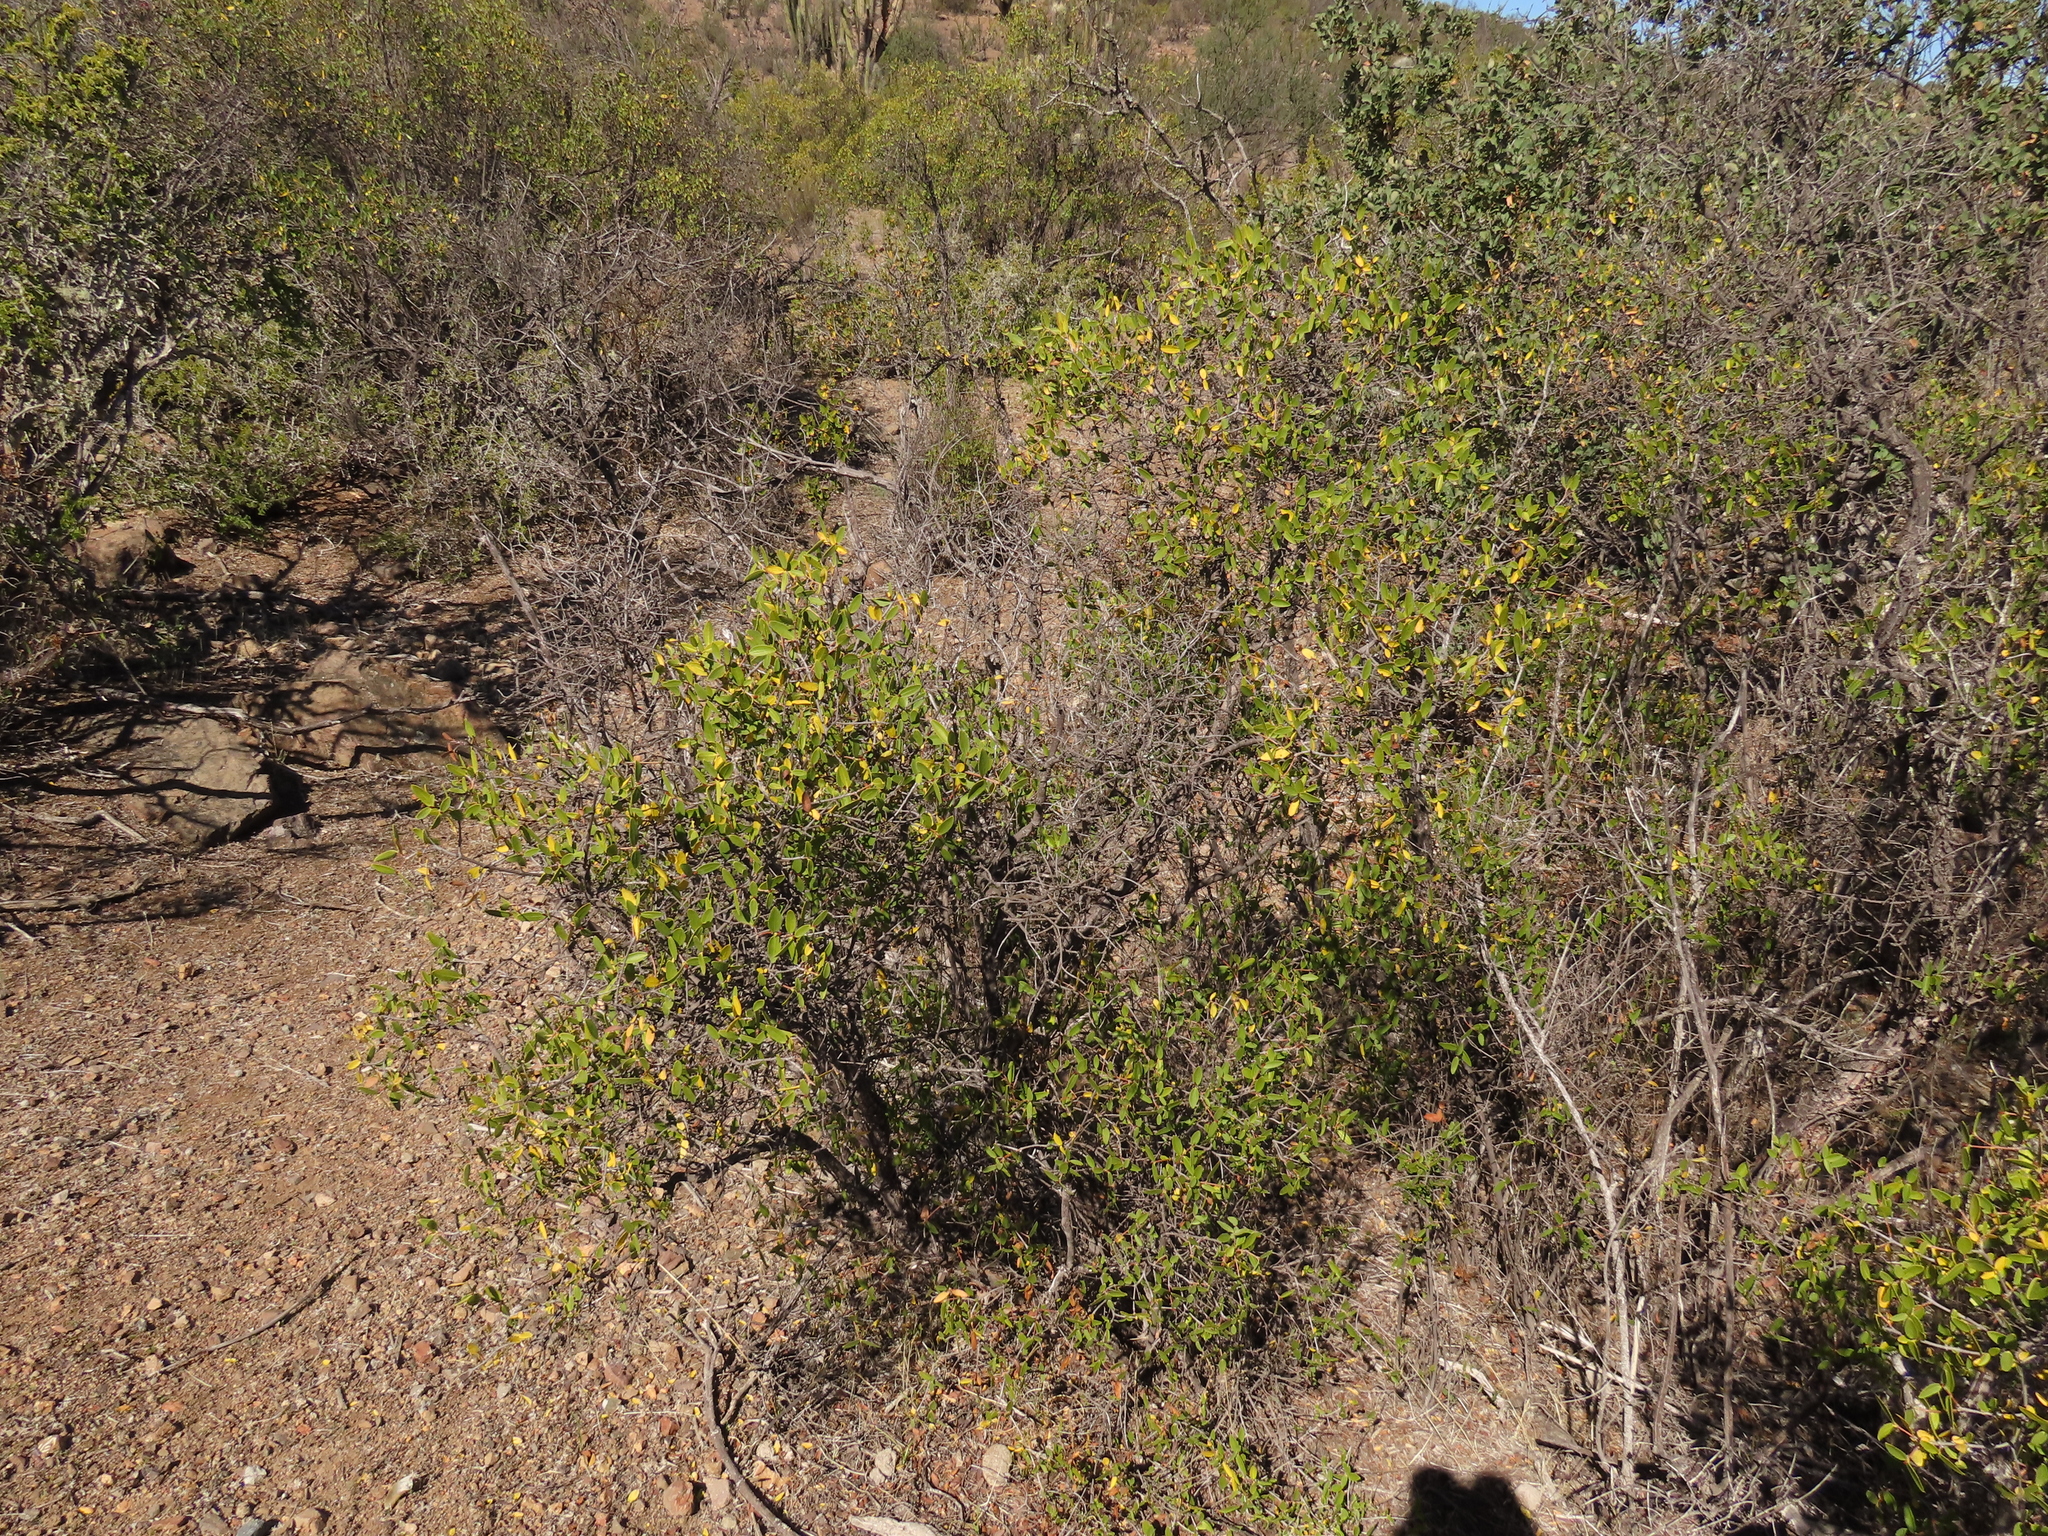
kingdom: Plantae
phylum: Tracheophyta
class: Magnoliopsida
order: Malpighiales
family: Euphorbiaceae
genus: Colliguaja
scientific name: Colliguaja odorifera
